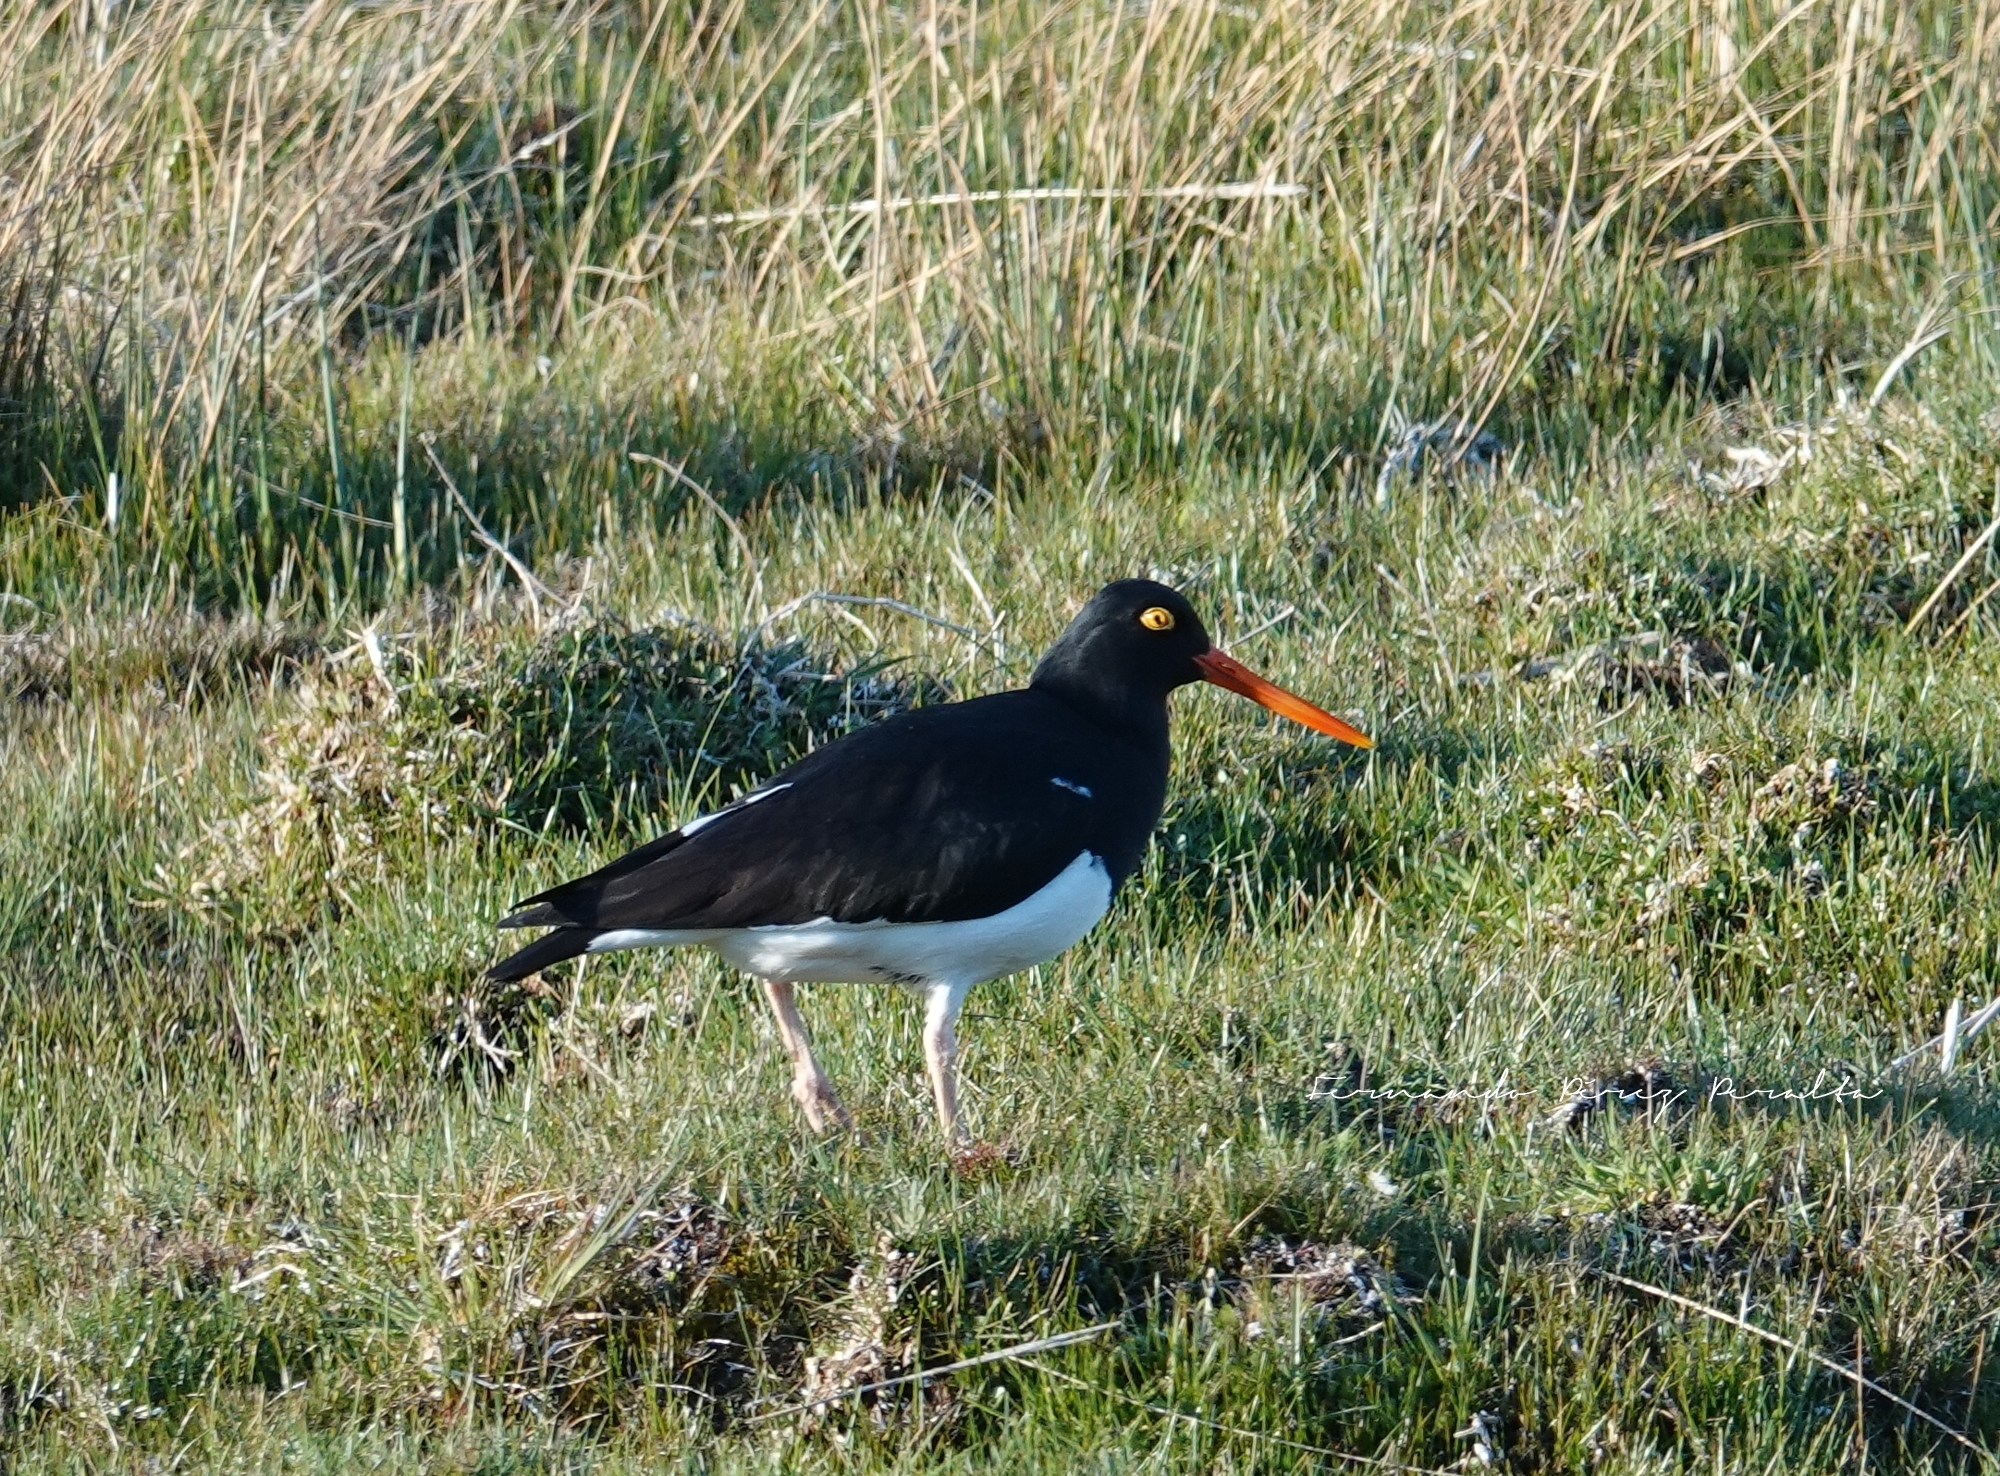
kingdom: Animalia
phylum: Chordata
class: Aves
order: Charadriiformes
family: Haematopodidae
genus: Haematopus
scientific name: Haematopus leucopodus
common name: Magellanic oystercatcher
